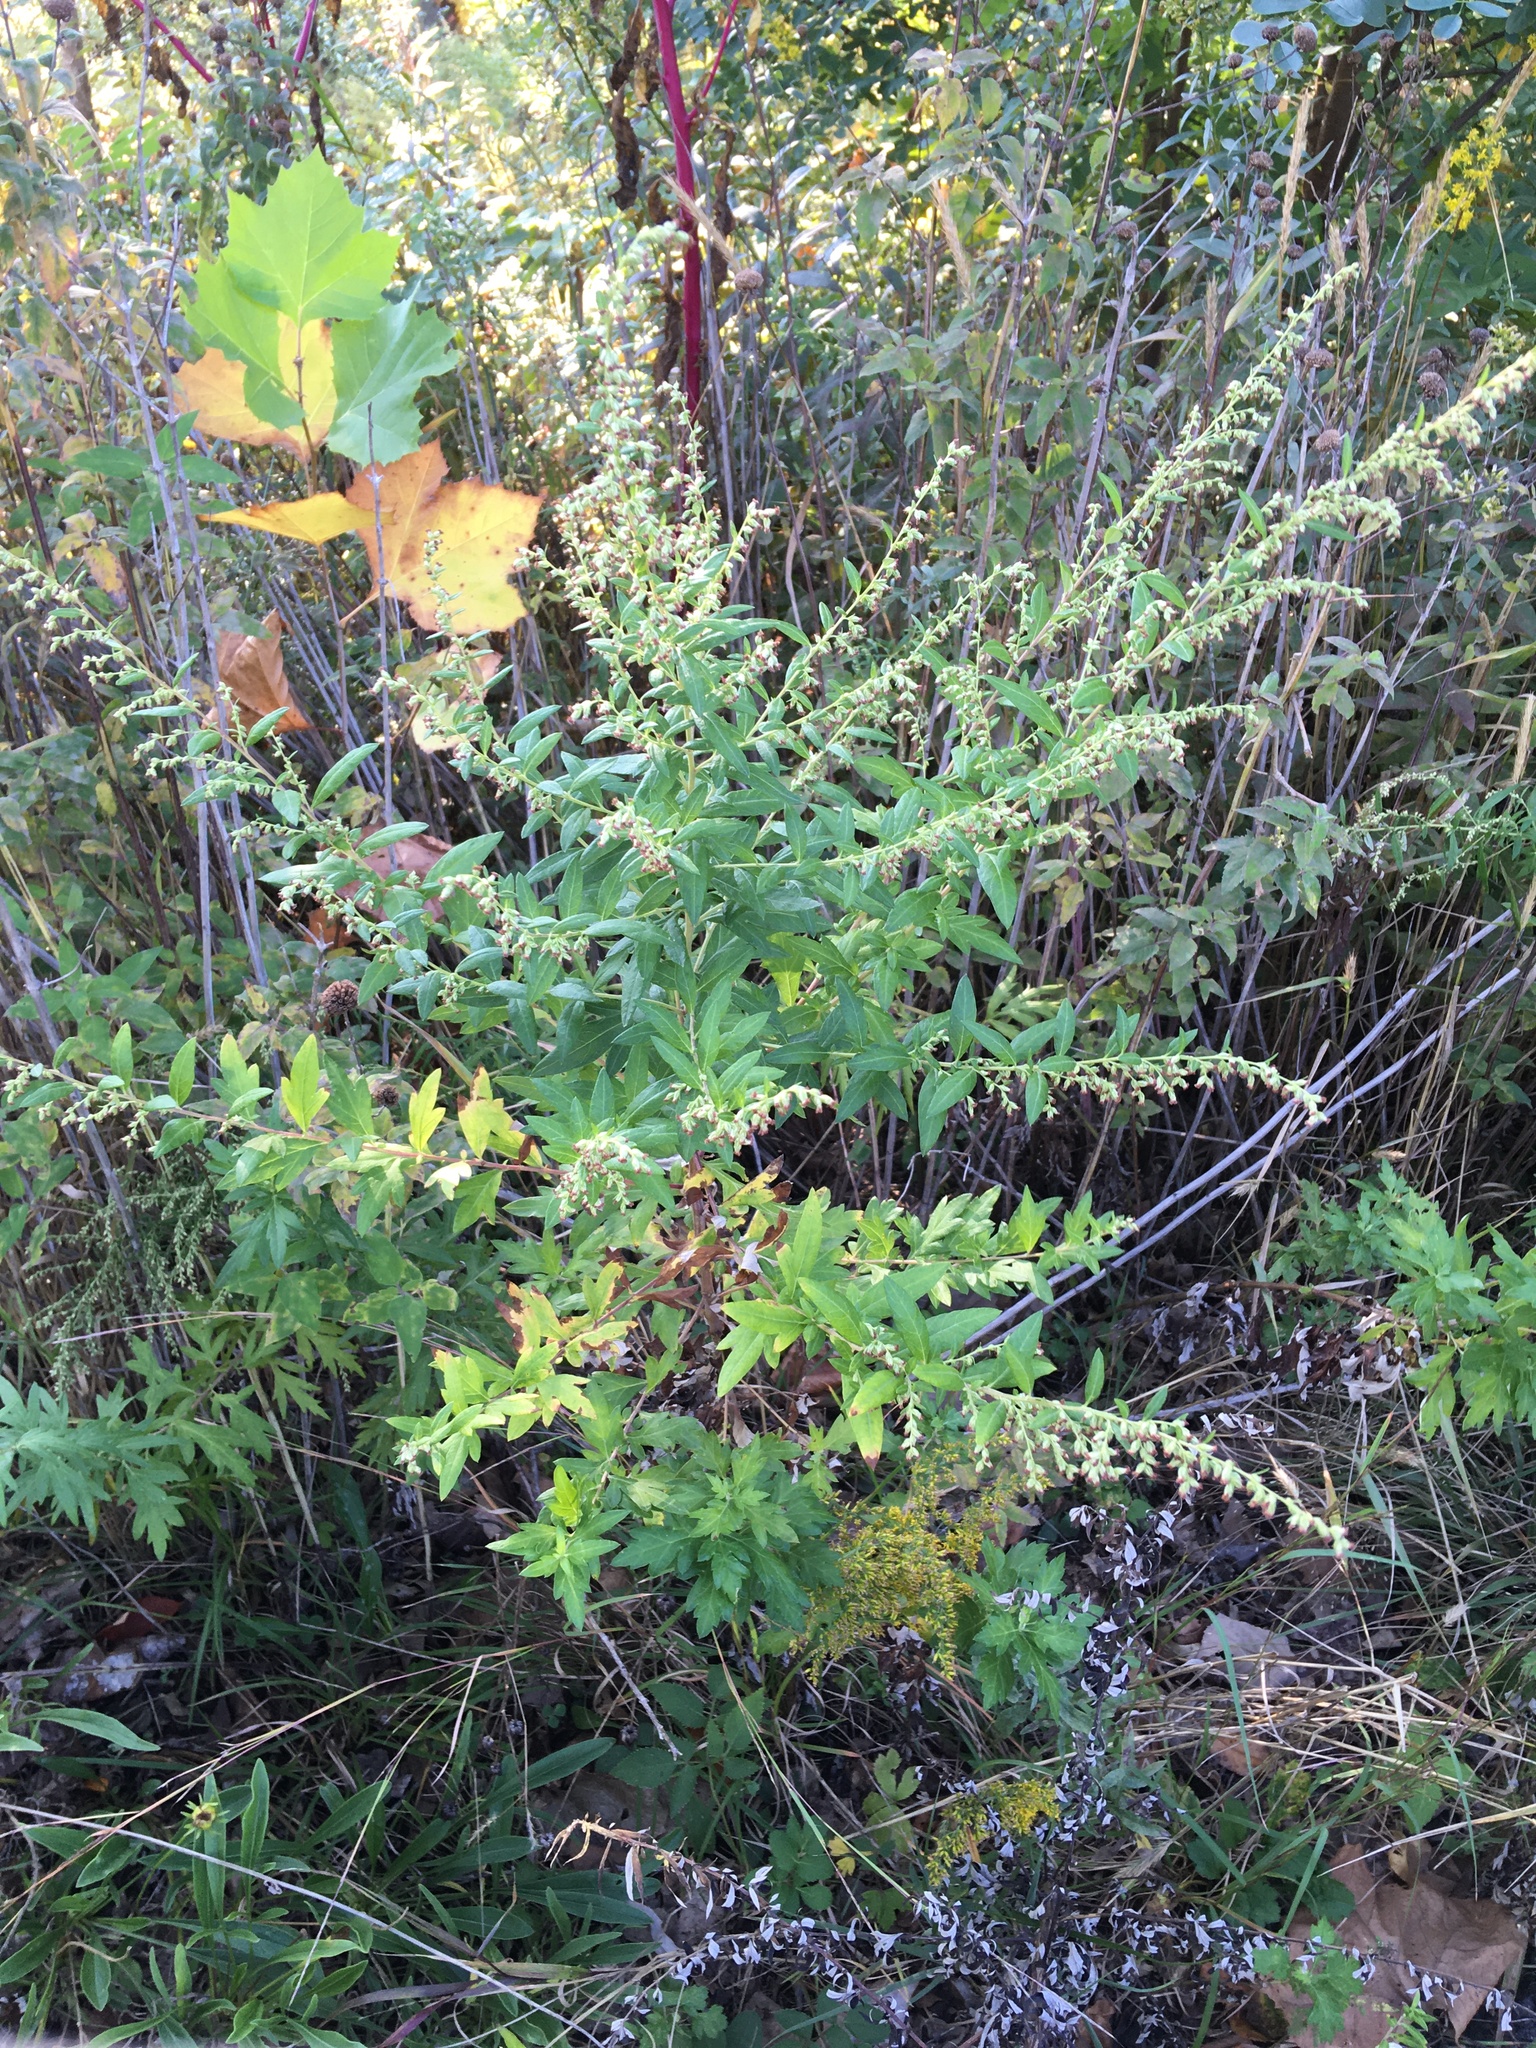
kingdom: Plantae
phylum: Tracheophyta
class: Magnoliopsida
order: Asterales
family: Asteraceae
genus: Artemisia
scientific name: Artemisia vulgaris
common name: Mugwort
